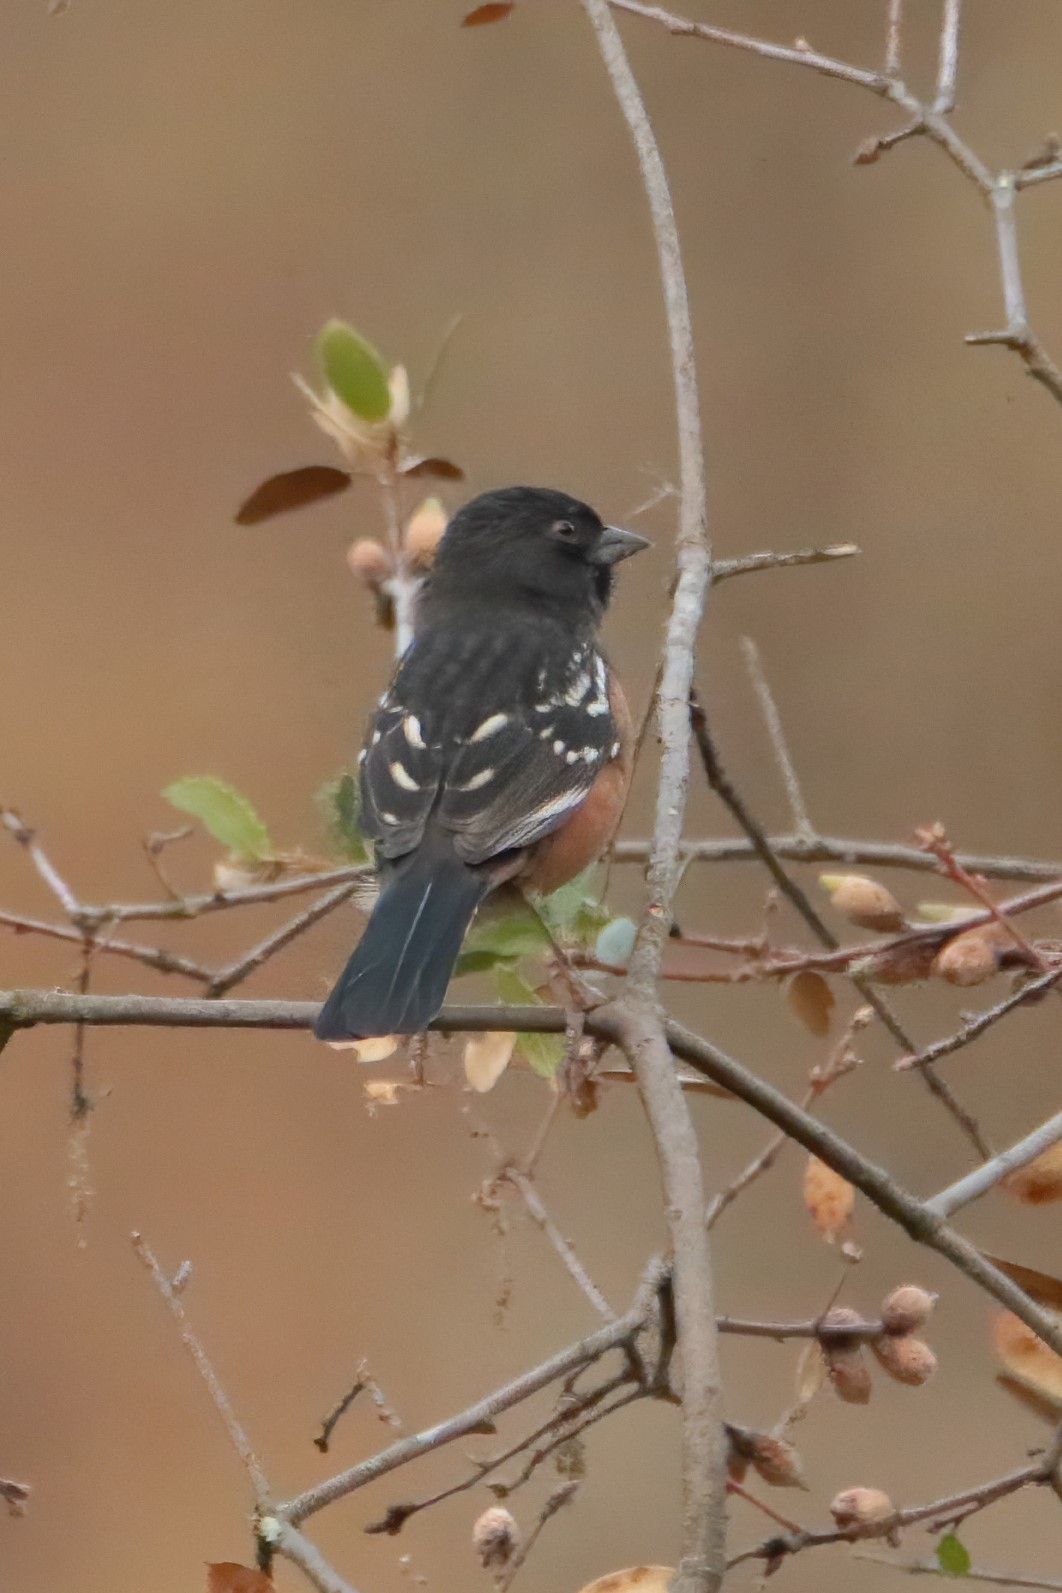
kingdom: Animalia
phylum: Chordata
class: Aves
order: Passeriformes
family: Passerellidae
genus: Pipilo
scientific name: Pipilo maculatus
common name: Spotted towhee
